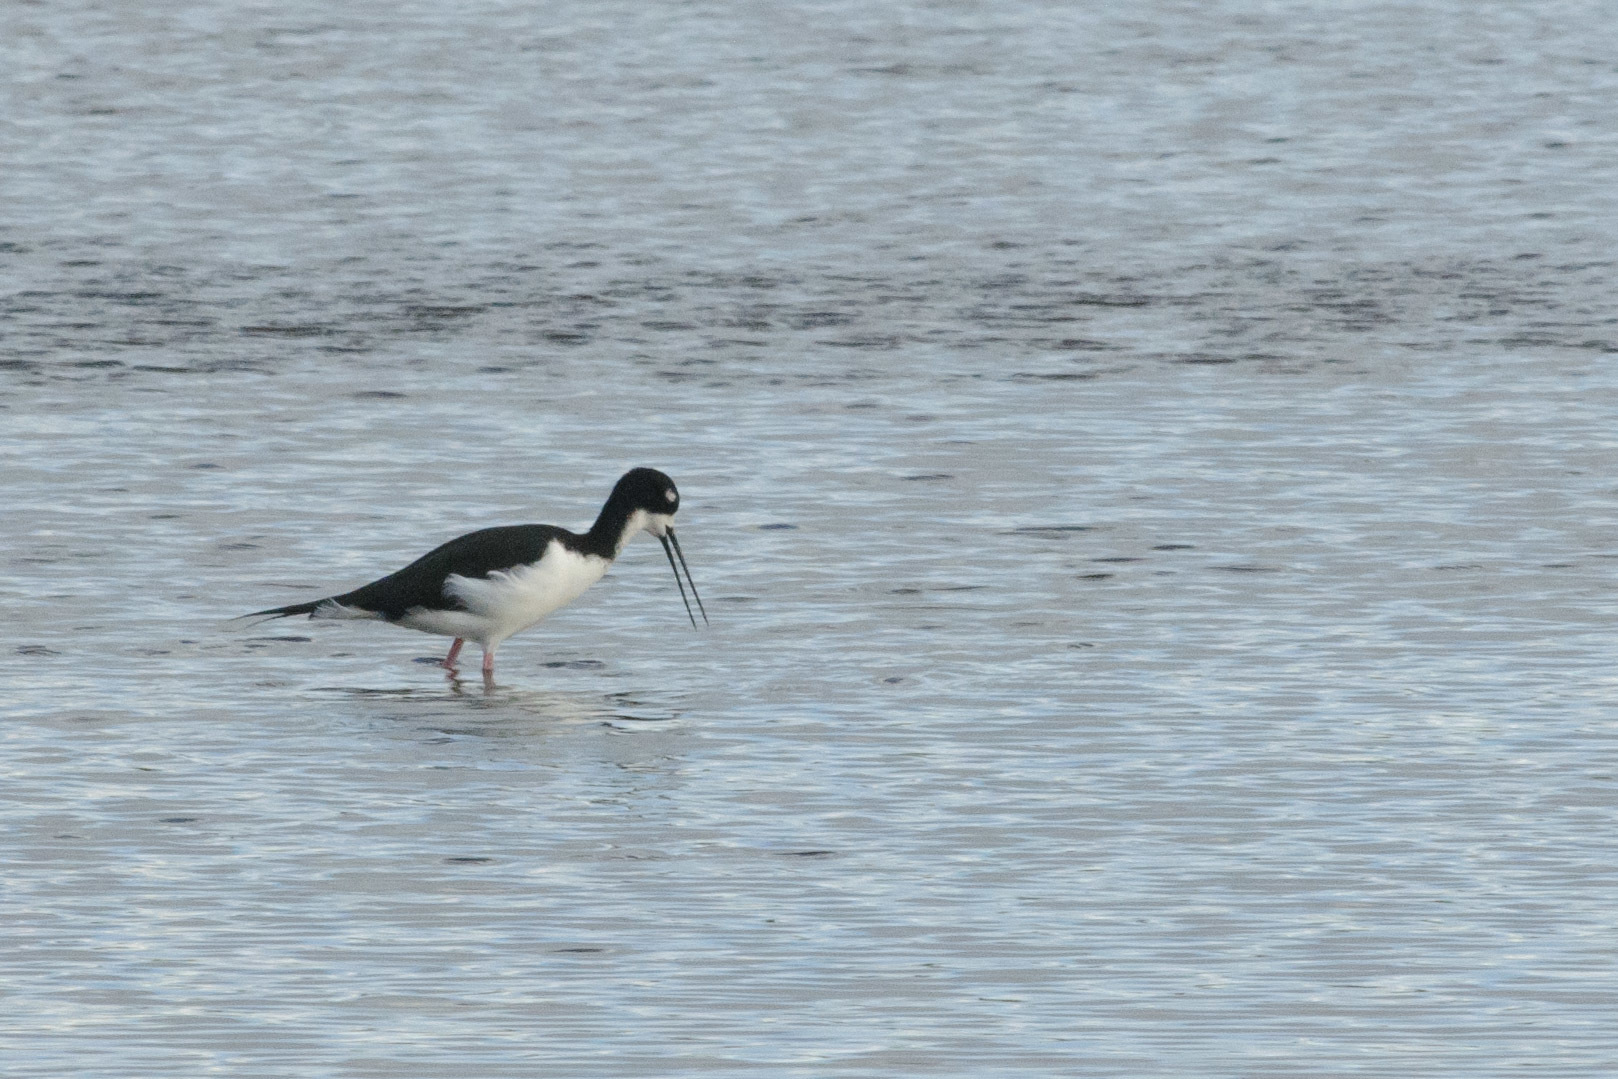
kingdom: Animalia
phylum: Chordata
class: Aves
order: Charadriiformes
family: Recurvirostridae
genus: Himantopus
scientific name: Himantopus mexicanus
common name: Black-necked stilt
